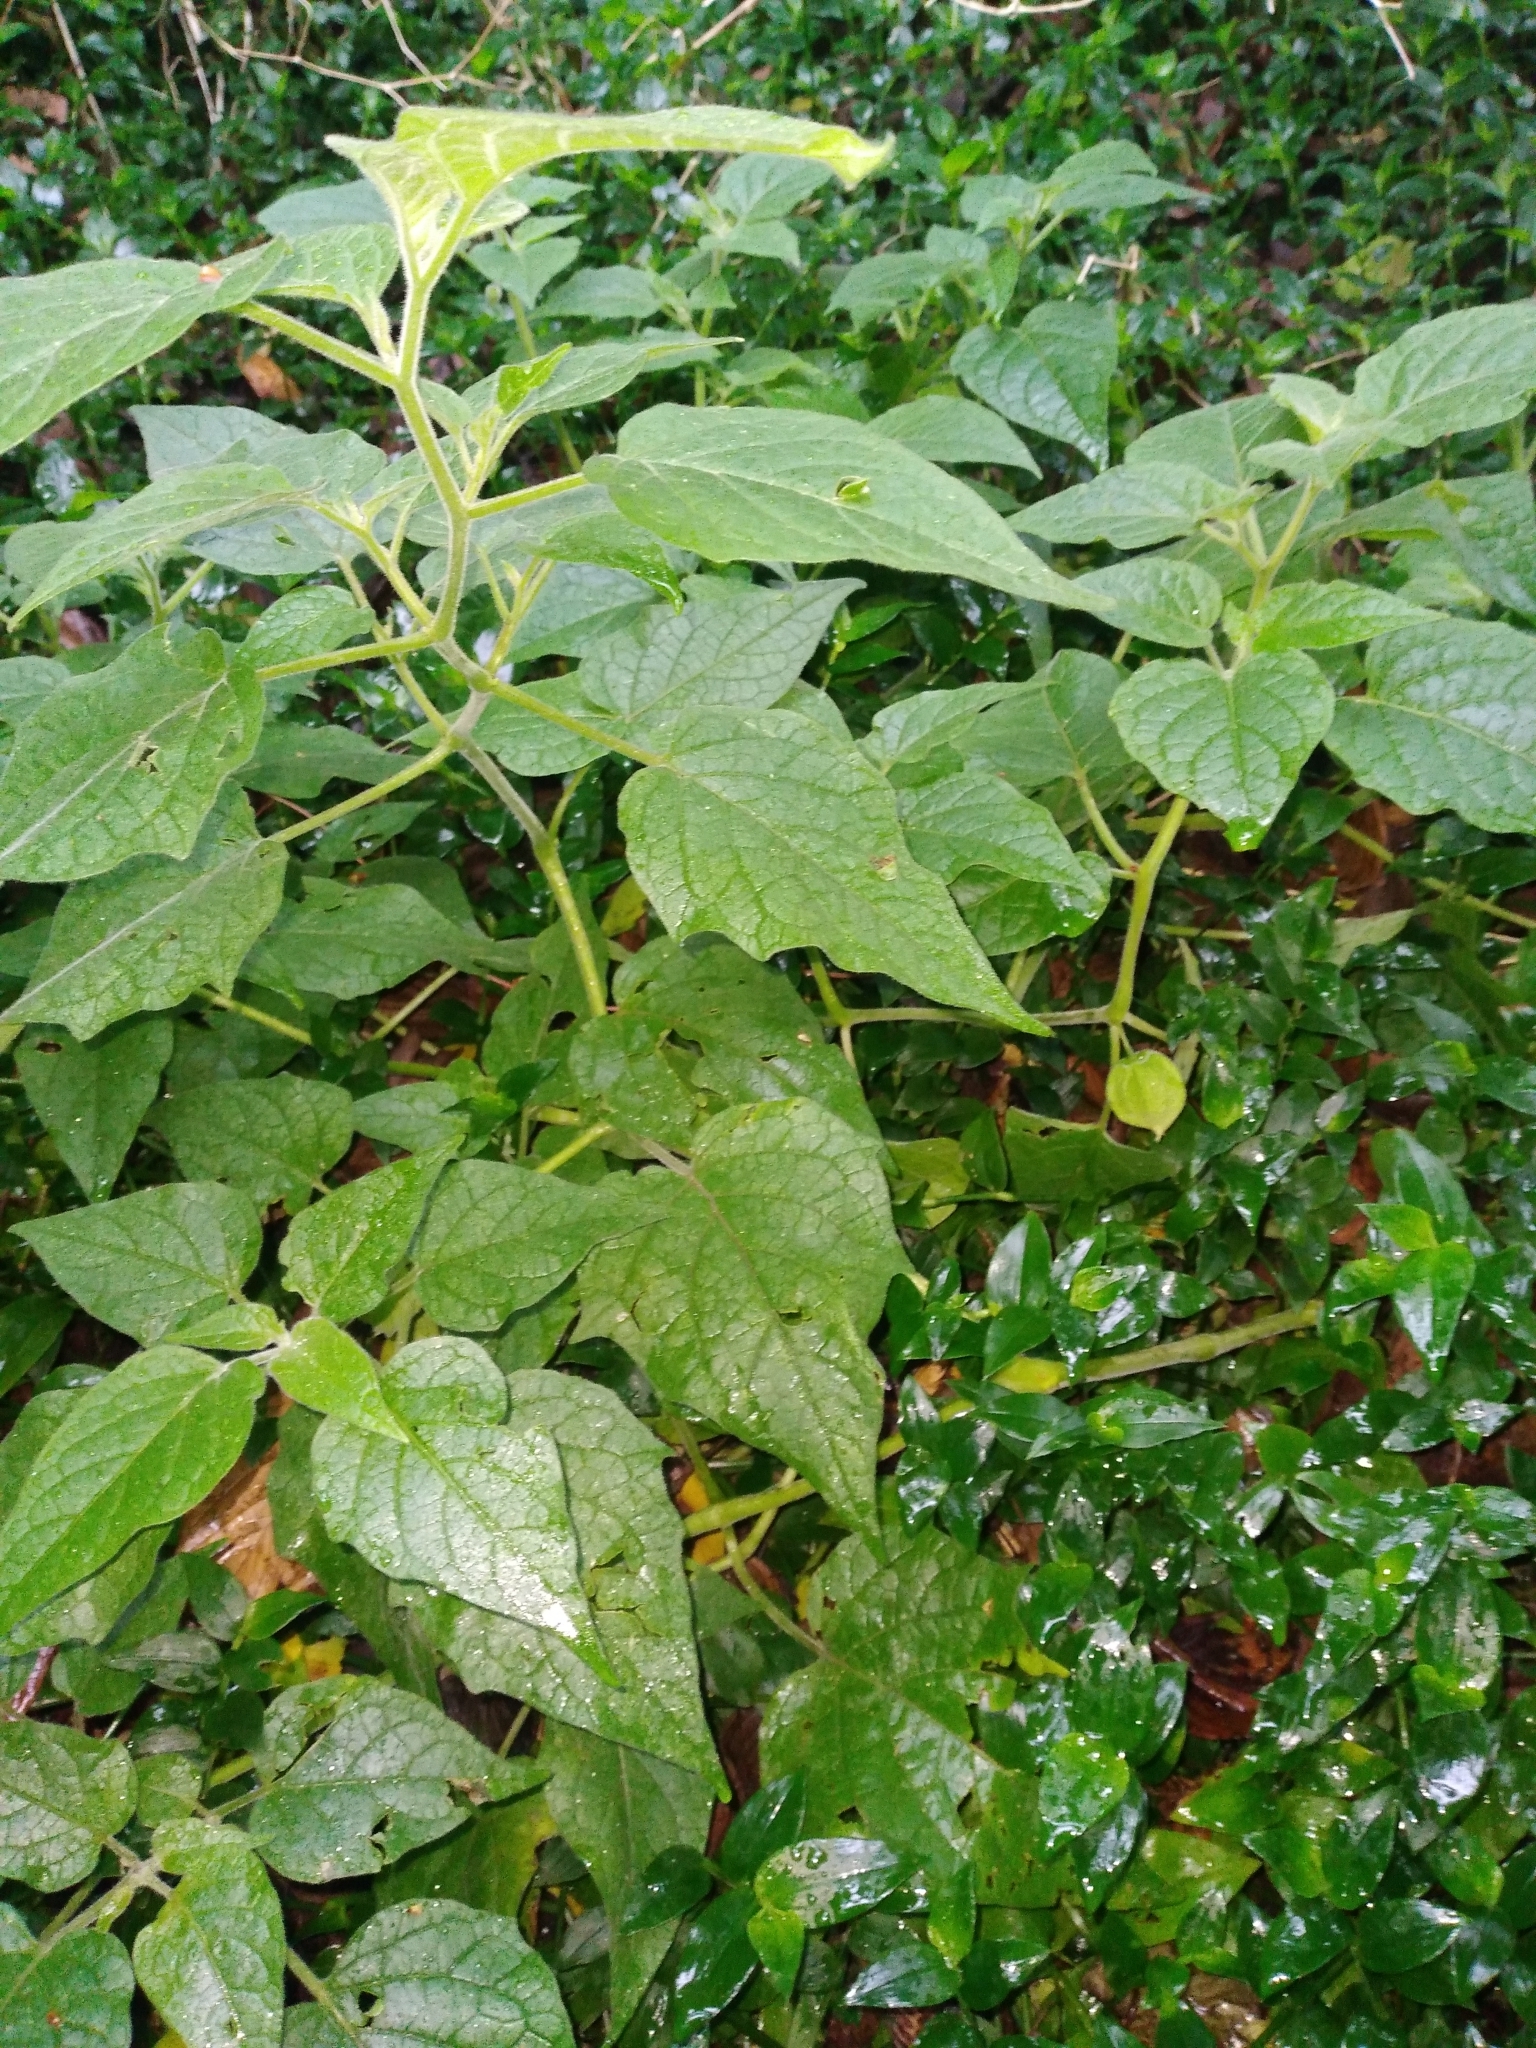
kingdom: Plantae
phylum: Tracheophyta
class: Magnoliopsida
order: Solanales
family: Solanaceae
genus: Physalis
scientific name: Physalis peruviana
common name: Cape-gooseberry
